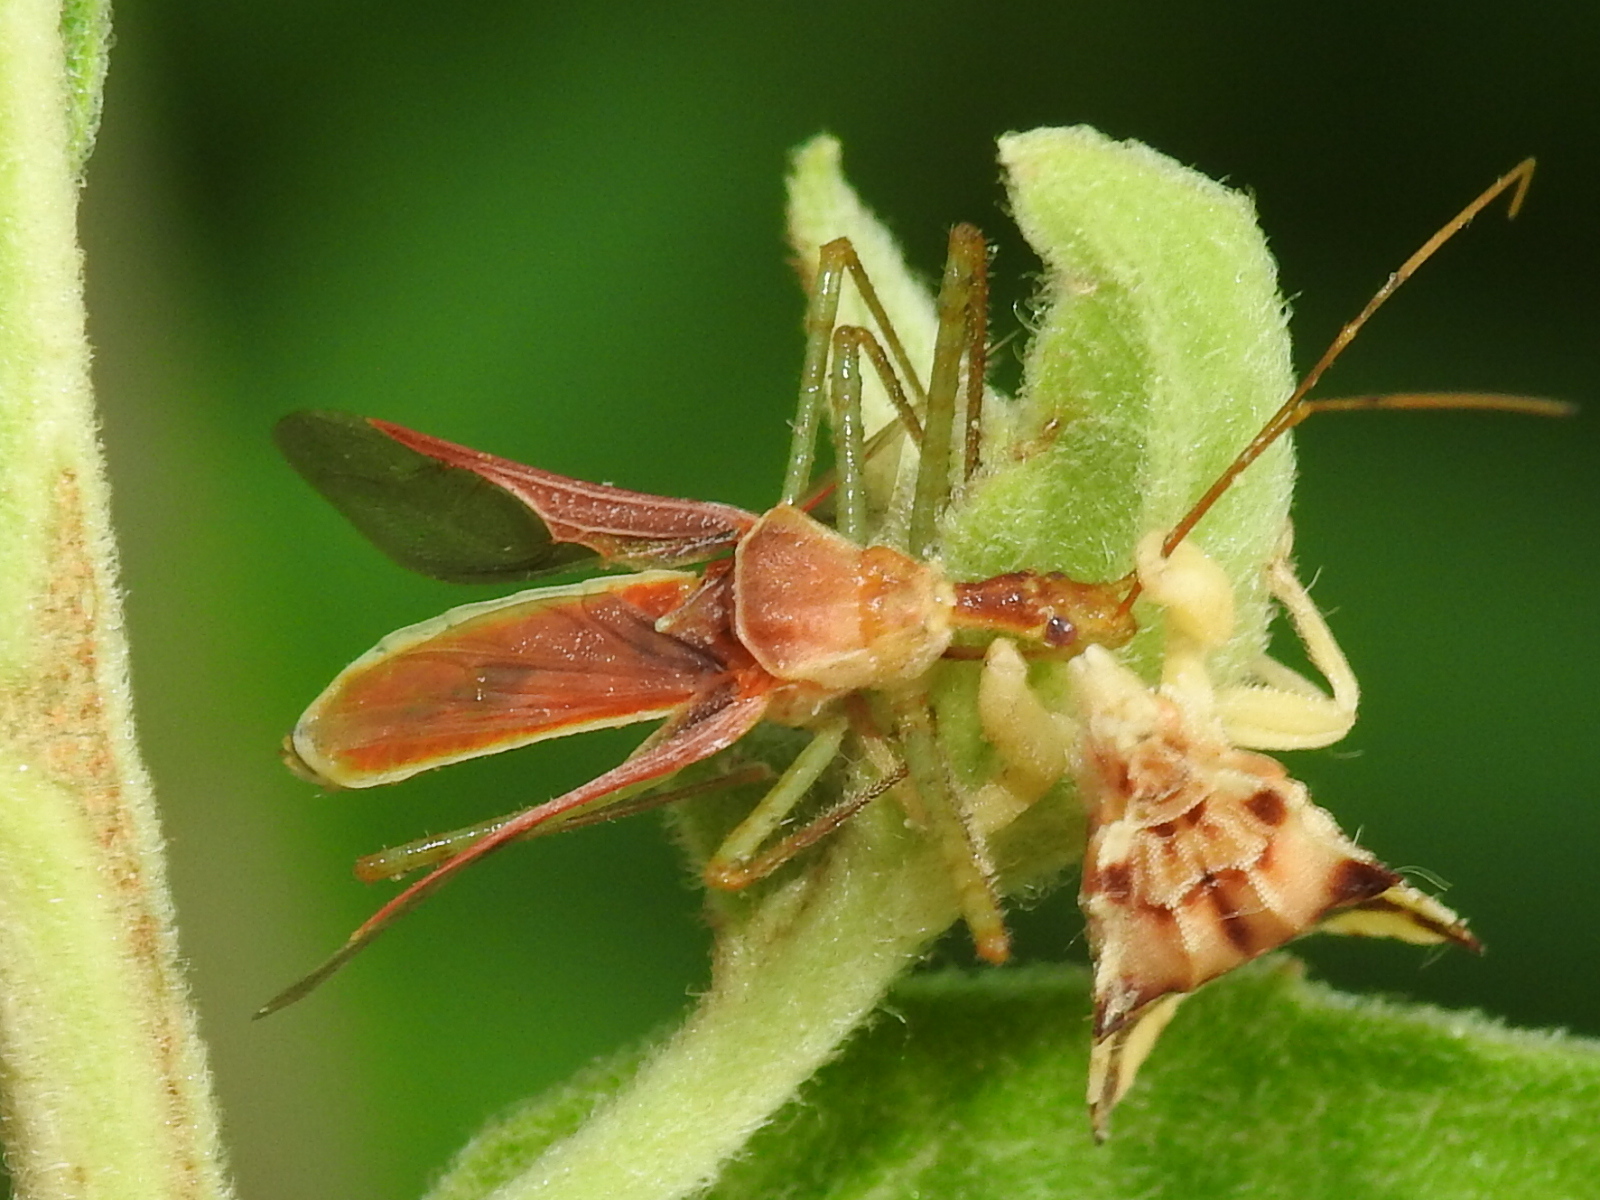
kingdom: Animalia
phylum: Arthropoda
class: Insecta
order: Hemiptera
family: Reduviidae
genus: Zelus
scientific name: Zelus renardii
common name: Assassin bug
